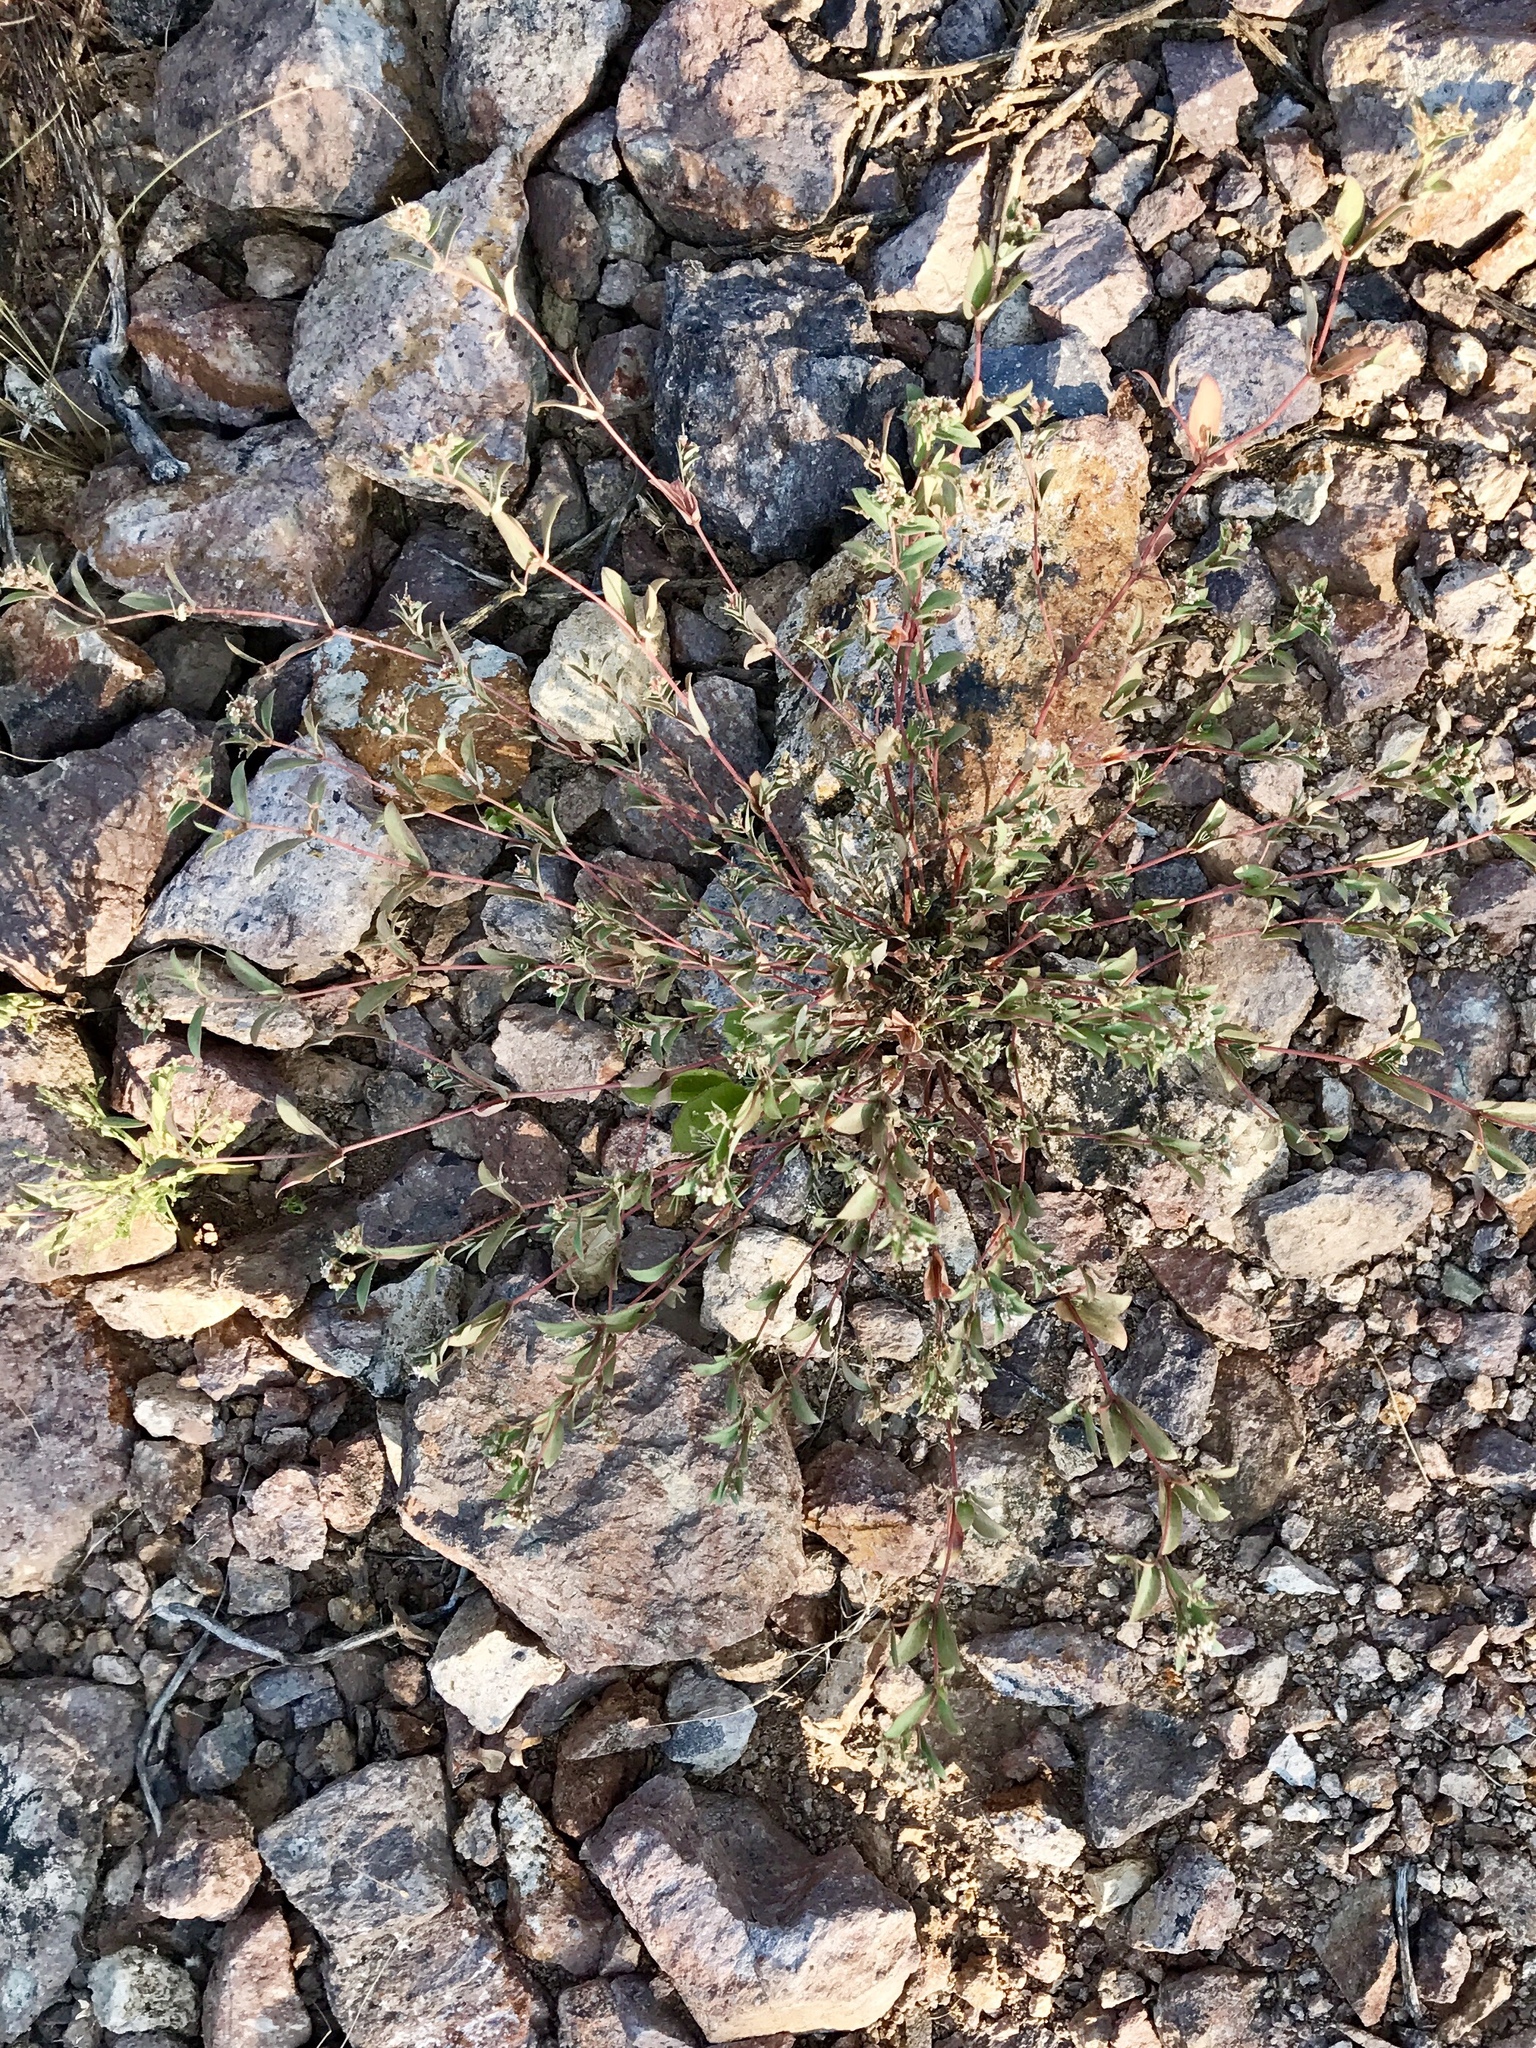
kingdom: Plantae
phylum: Tracheophyta
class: Magnoliopsida
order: Malpighiales
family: Euphorbiaceae
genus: Euphorbia
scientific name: Euphorbia capitellata
